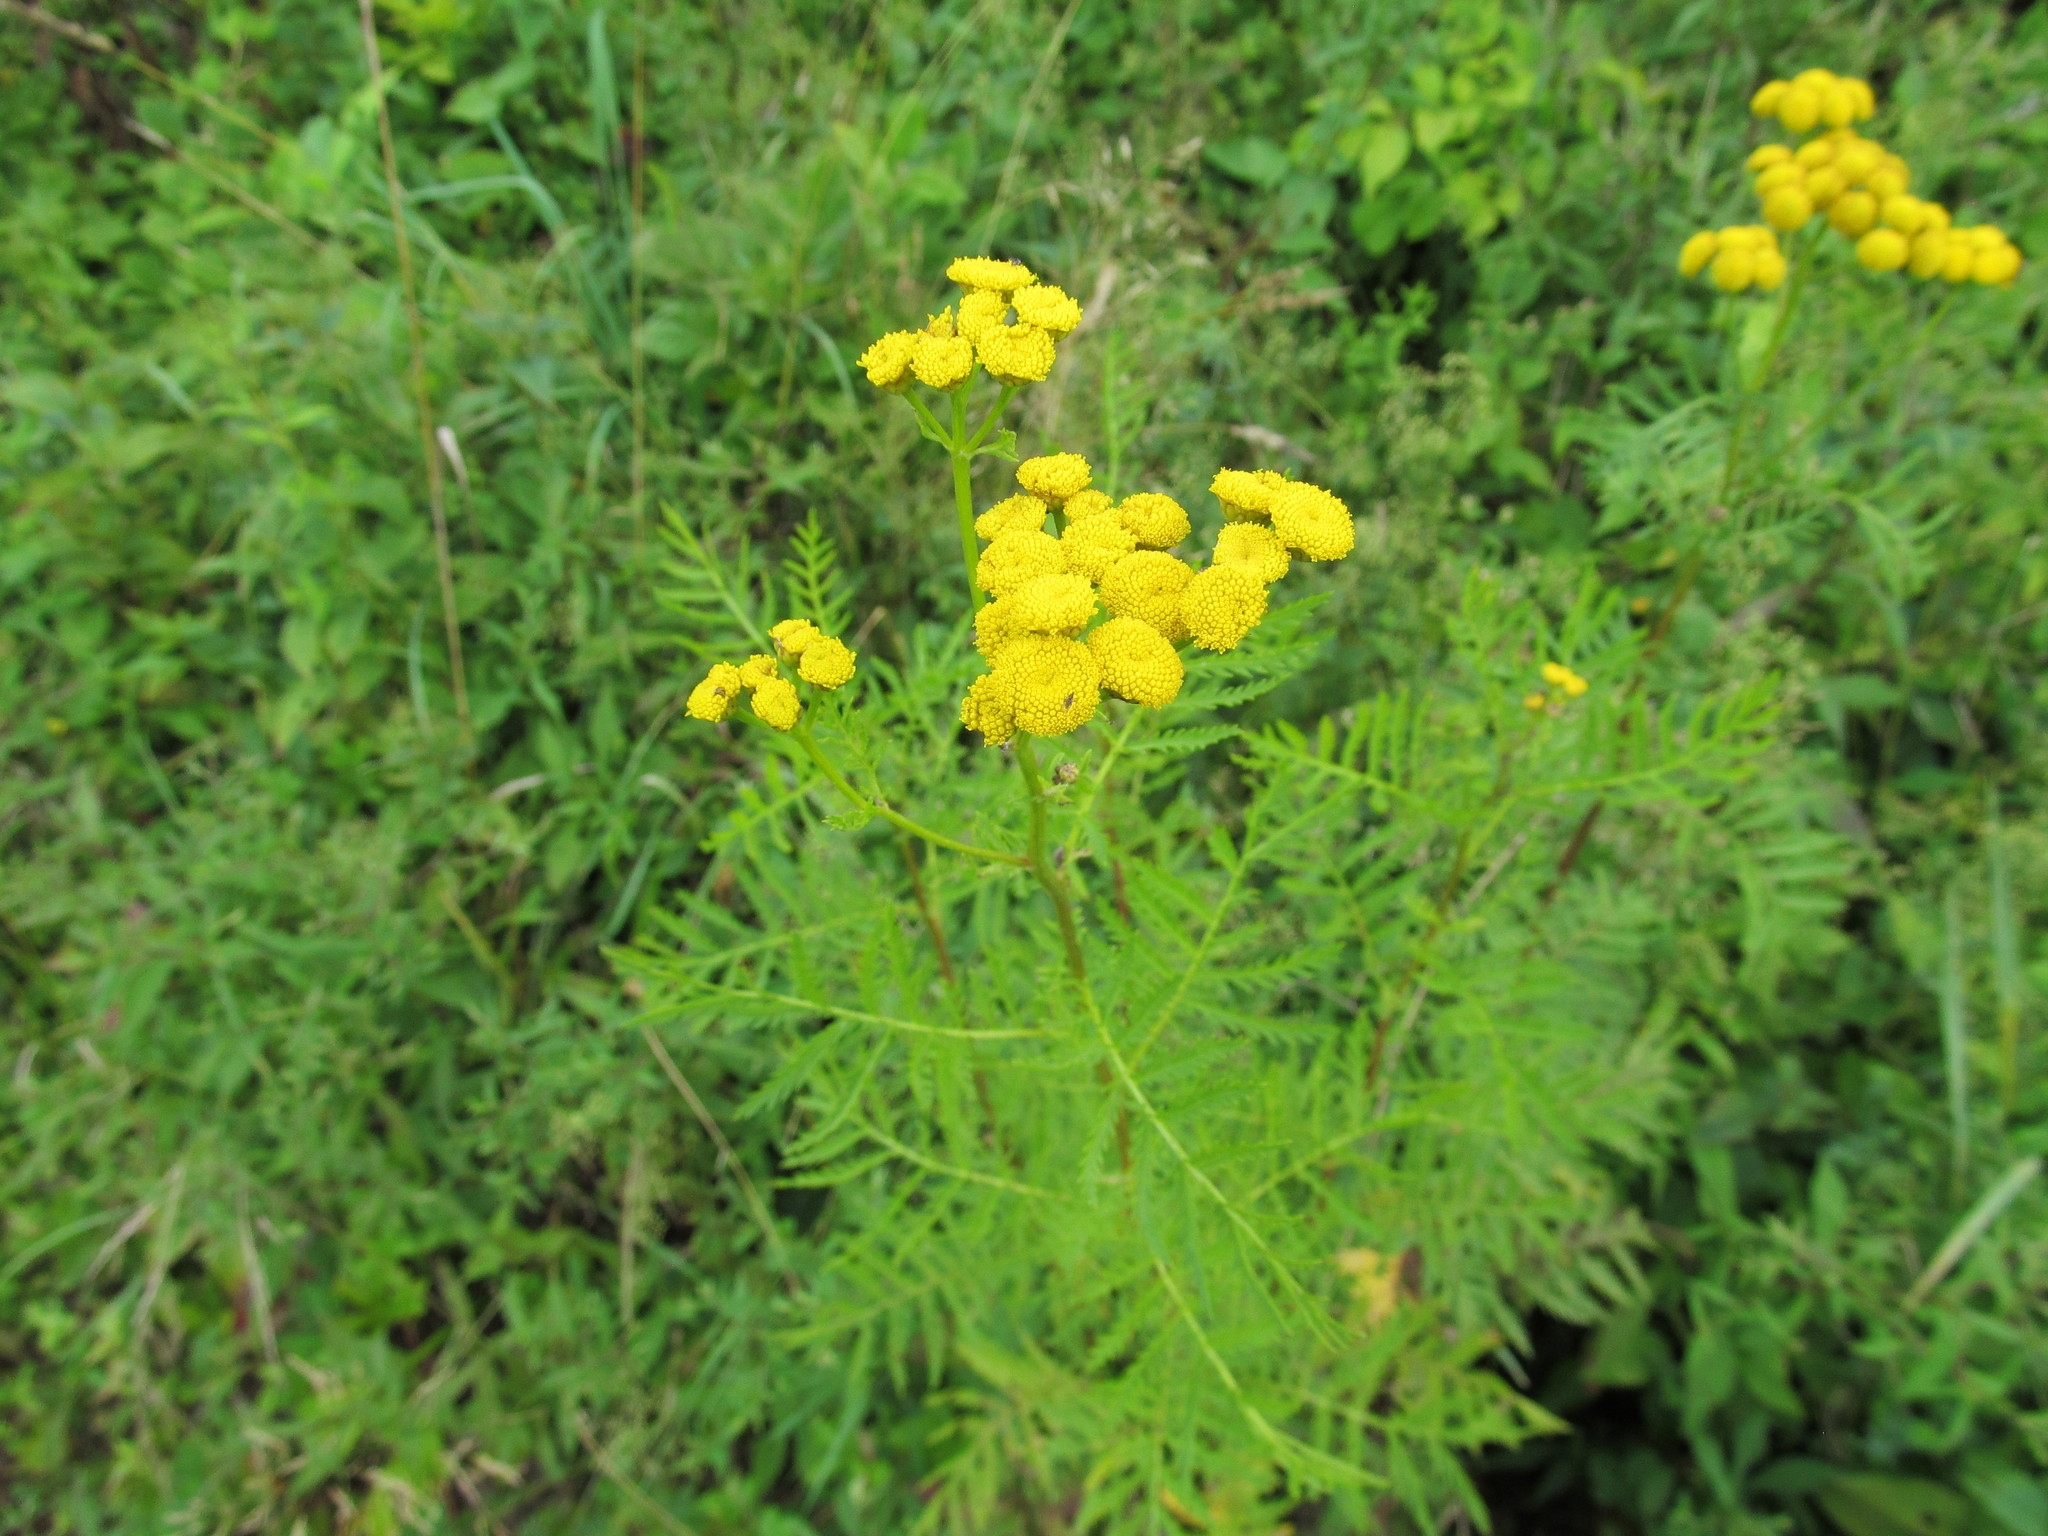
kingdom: Plantae
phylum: Tracheophyta
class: Magnoliopsida
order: Asterales
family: Asteraceae
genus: Tanacetum
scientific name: Tanacetum vulgare
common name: Common tansy
